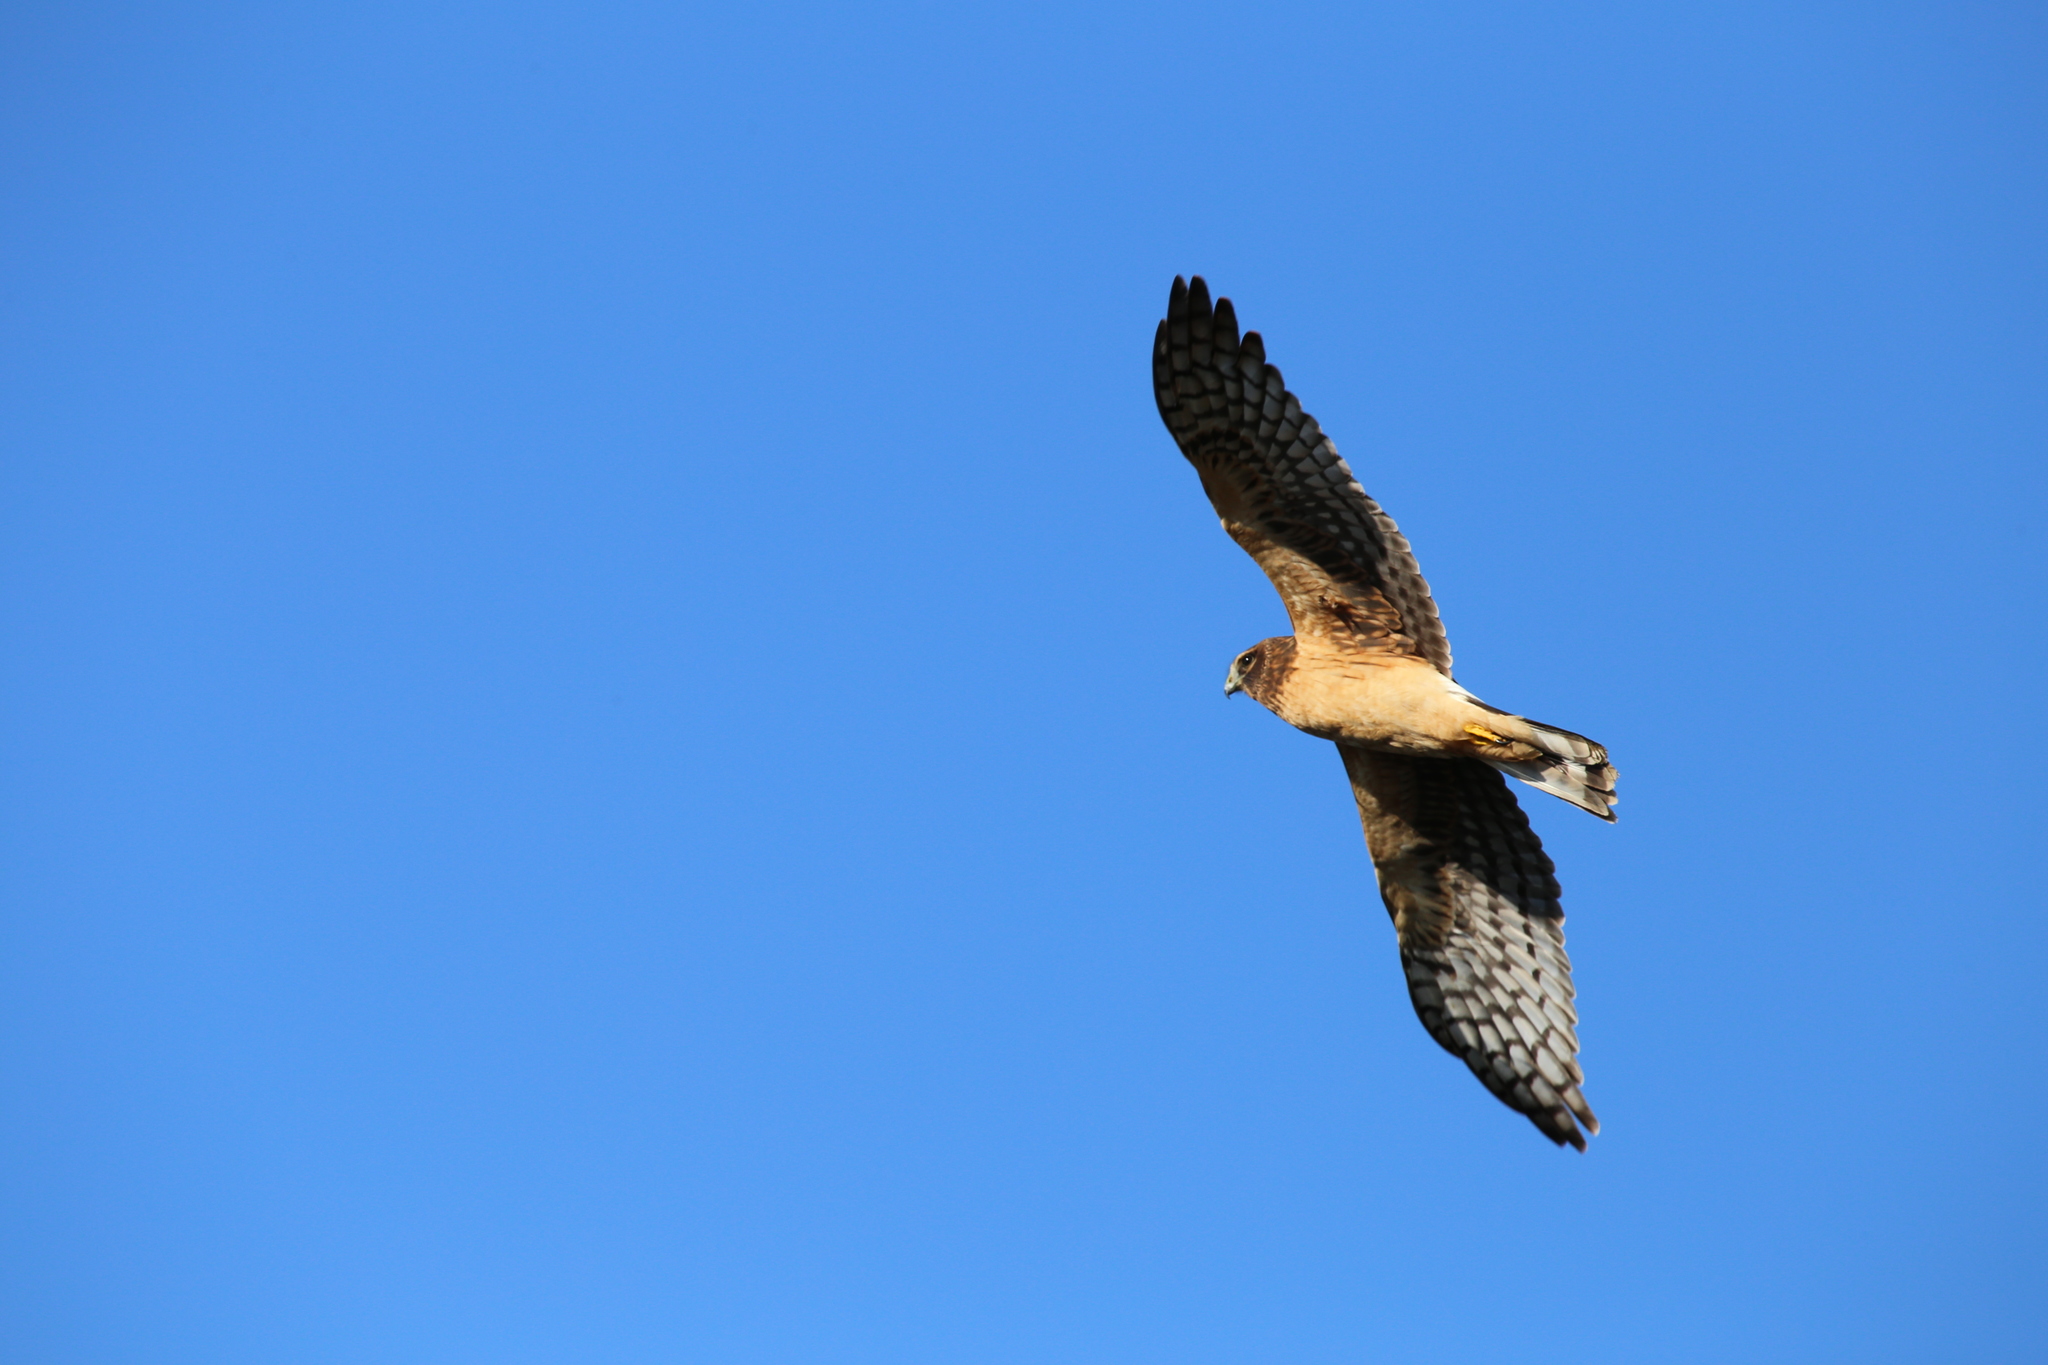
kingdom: Animalia
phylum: Chordata
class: Aves
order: Accipitriformes
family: Accipitridae
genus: Circus
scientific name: Circus cyaneus
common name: Hen harrier
